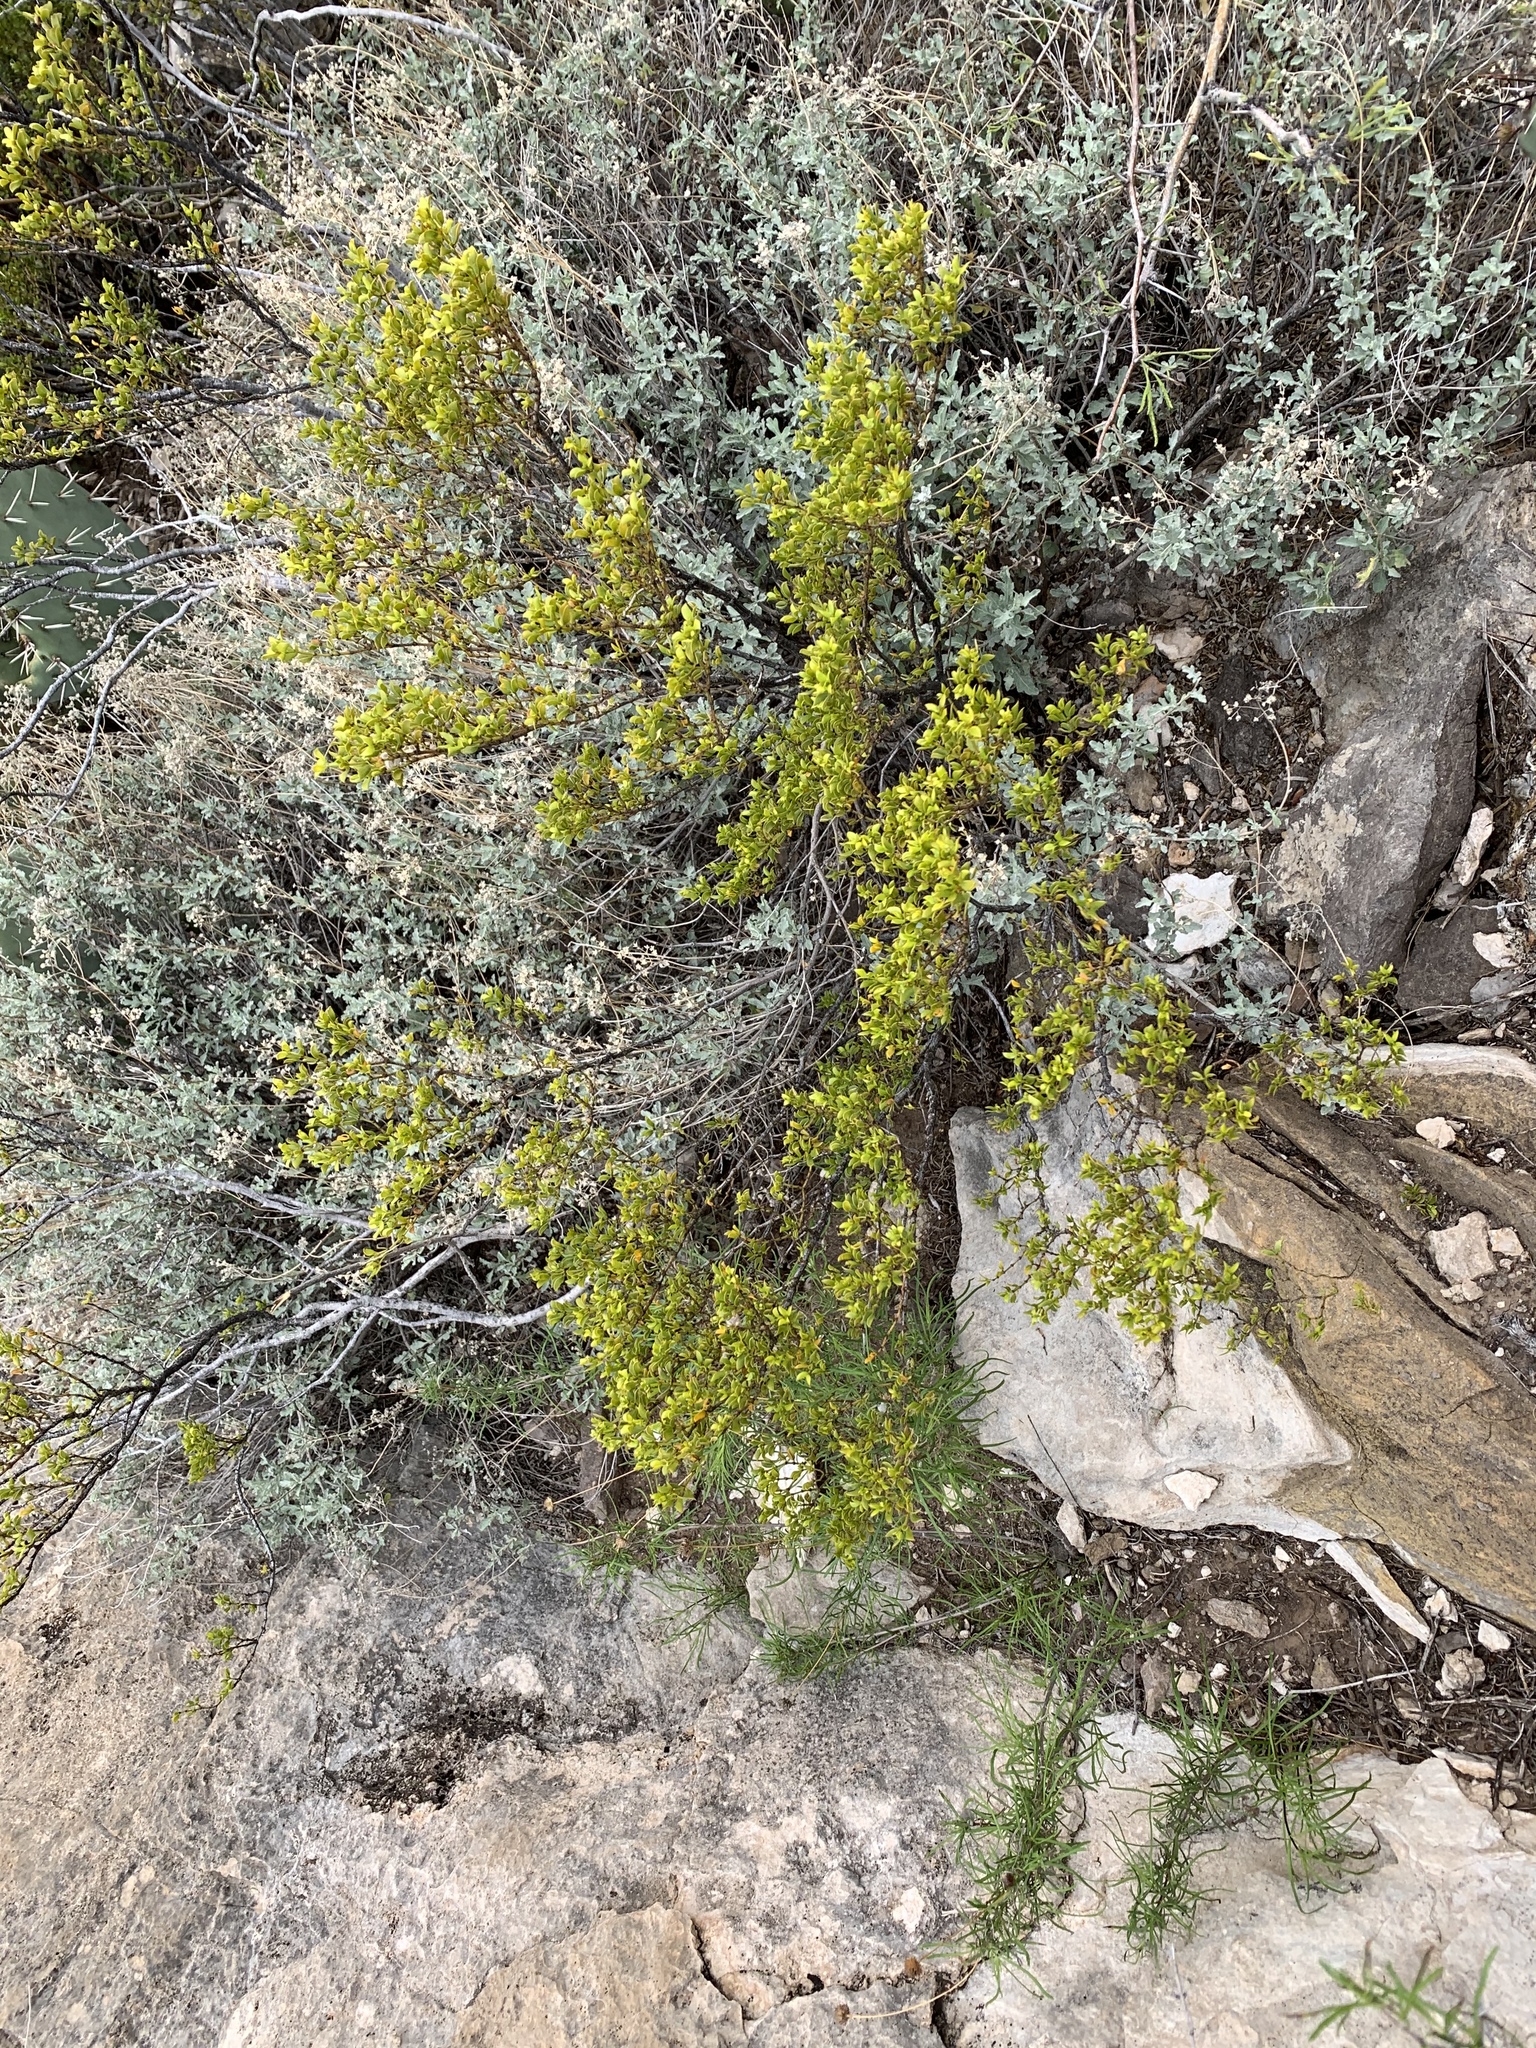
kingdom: Plantae
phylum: Tracheophyta
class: Magnoliopsida
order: Zygophyllales
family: Zygophyllaceae
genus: Larrea
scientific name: Larrea tridentata
